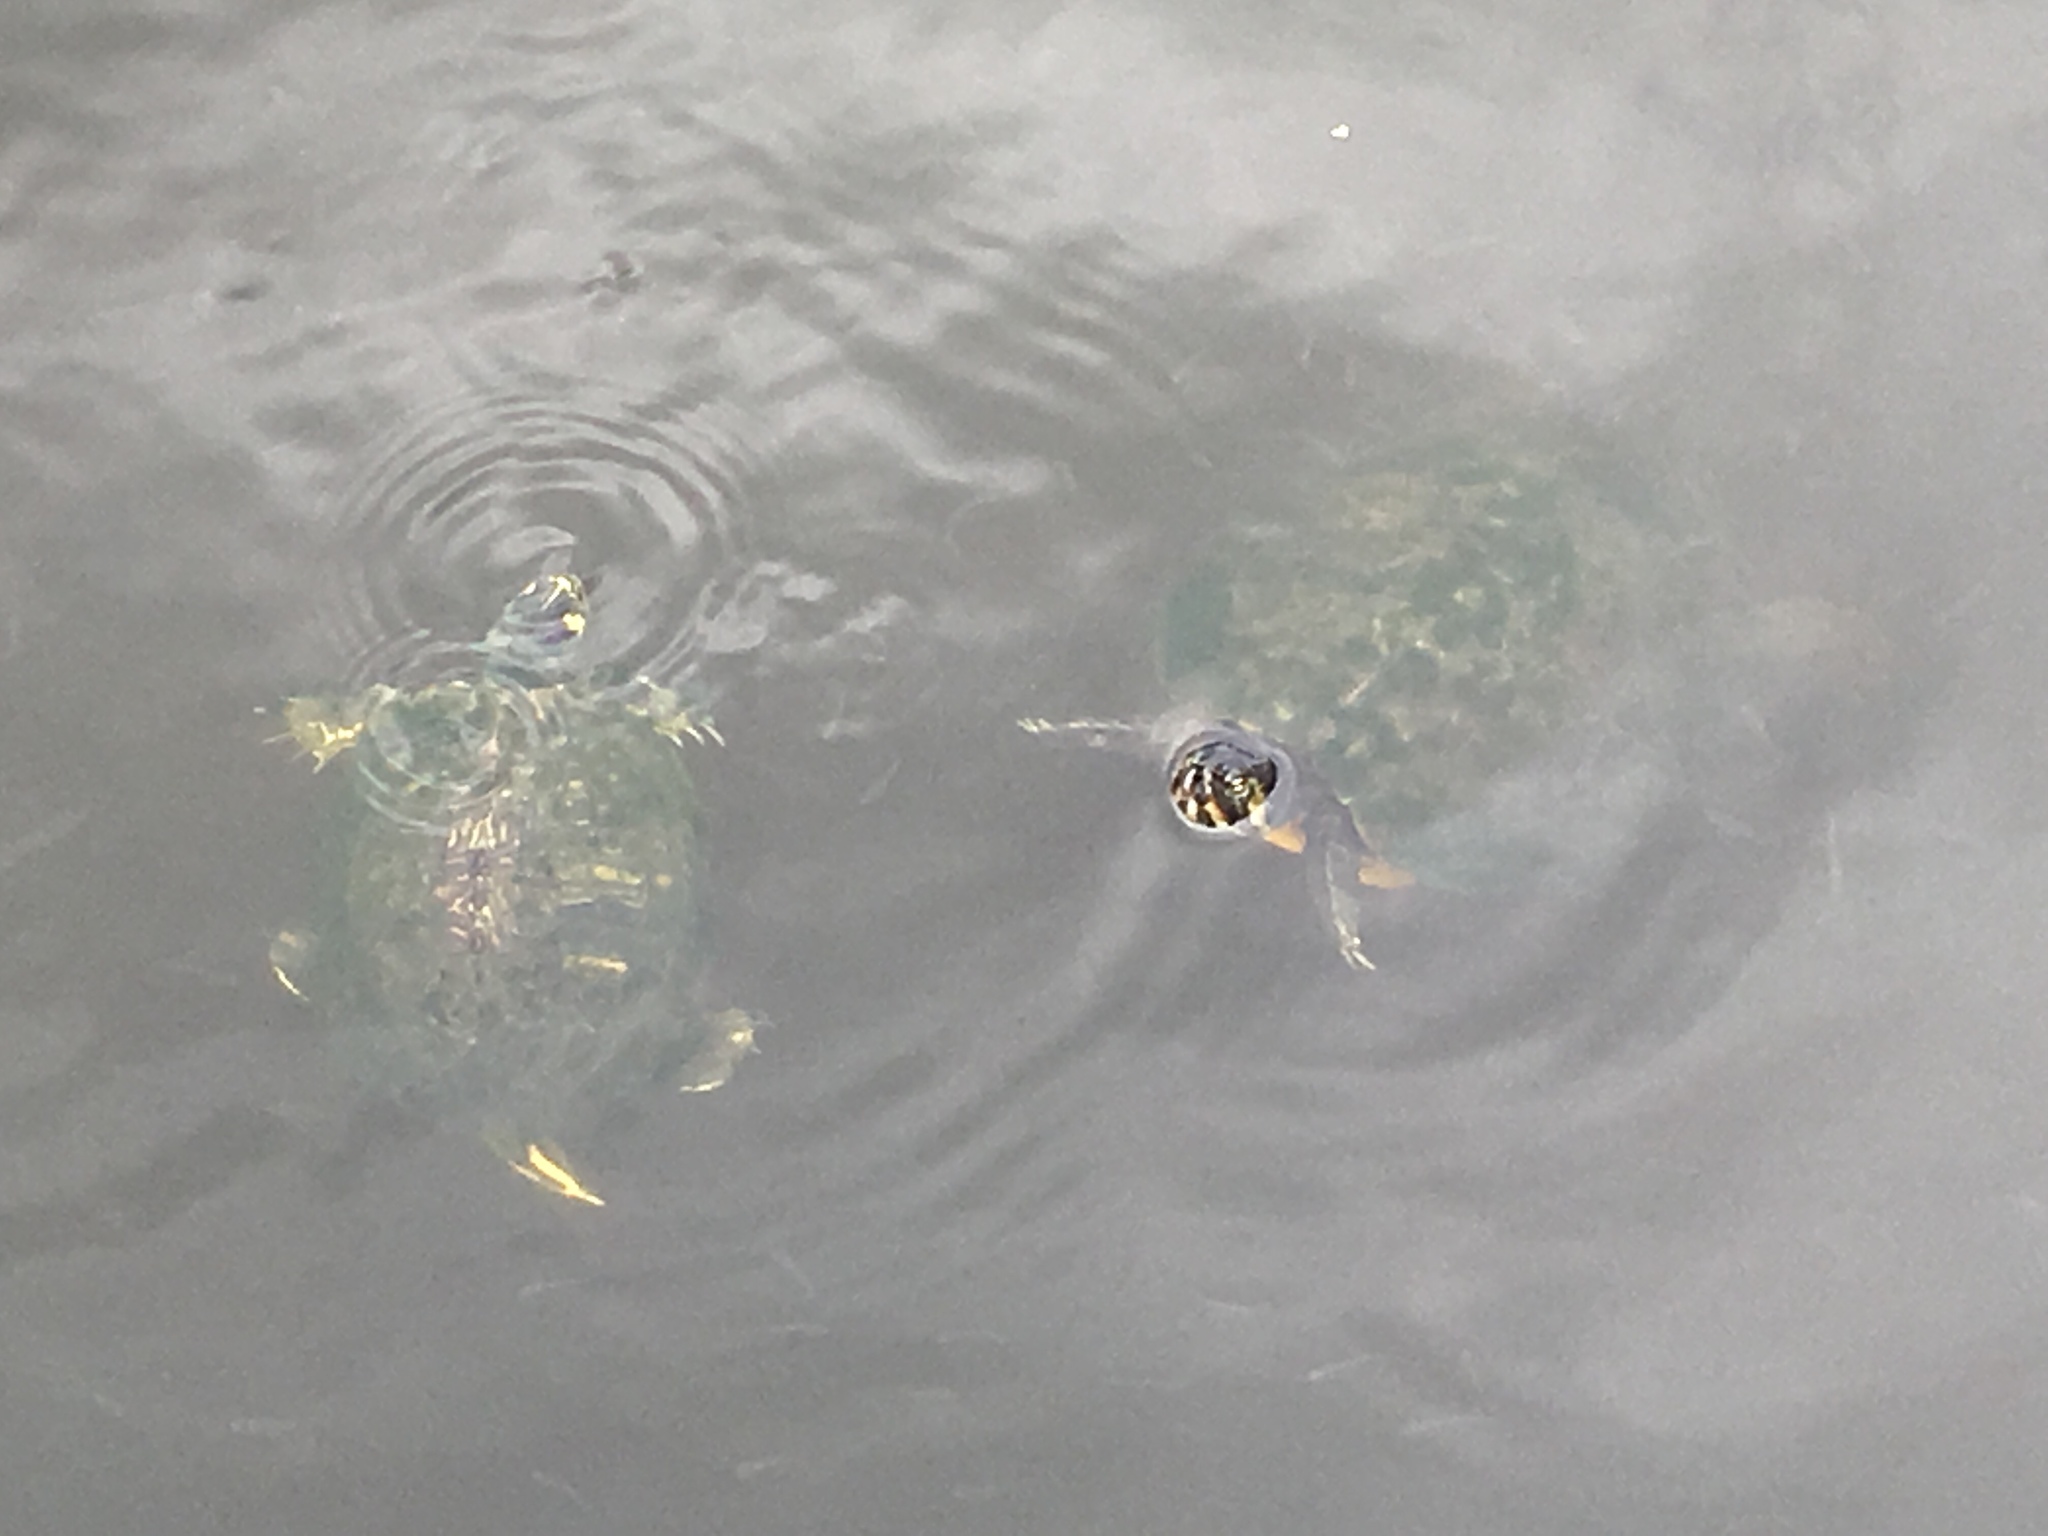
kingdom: Animalia
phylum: Chordata
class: Testudines
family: Emydidae
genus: Trachemys
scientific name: Trachemys scripta
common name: Slider
